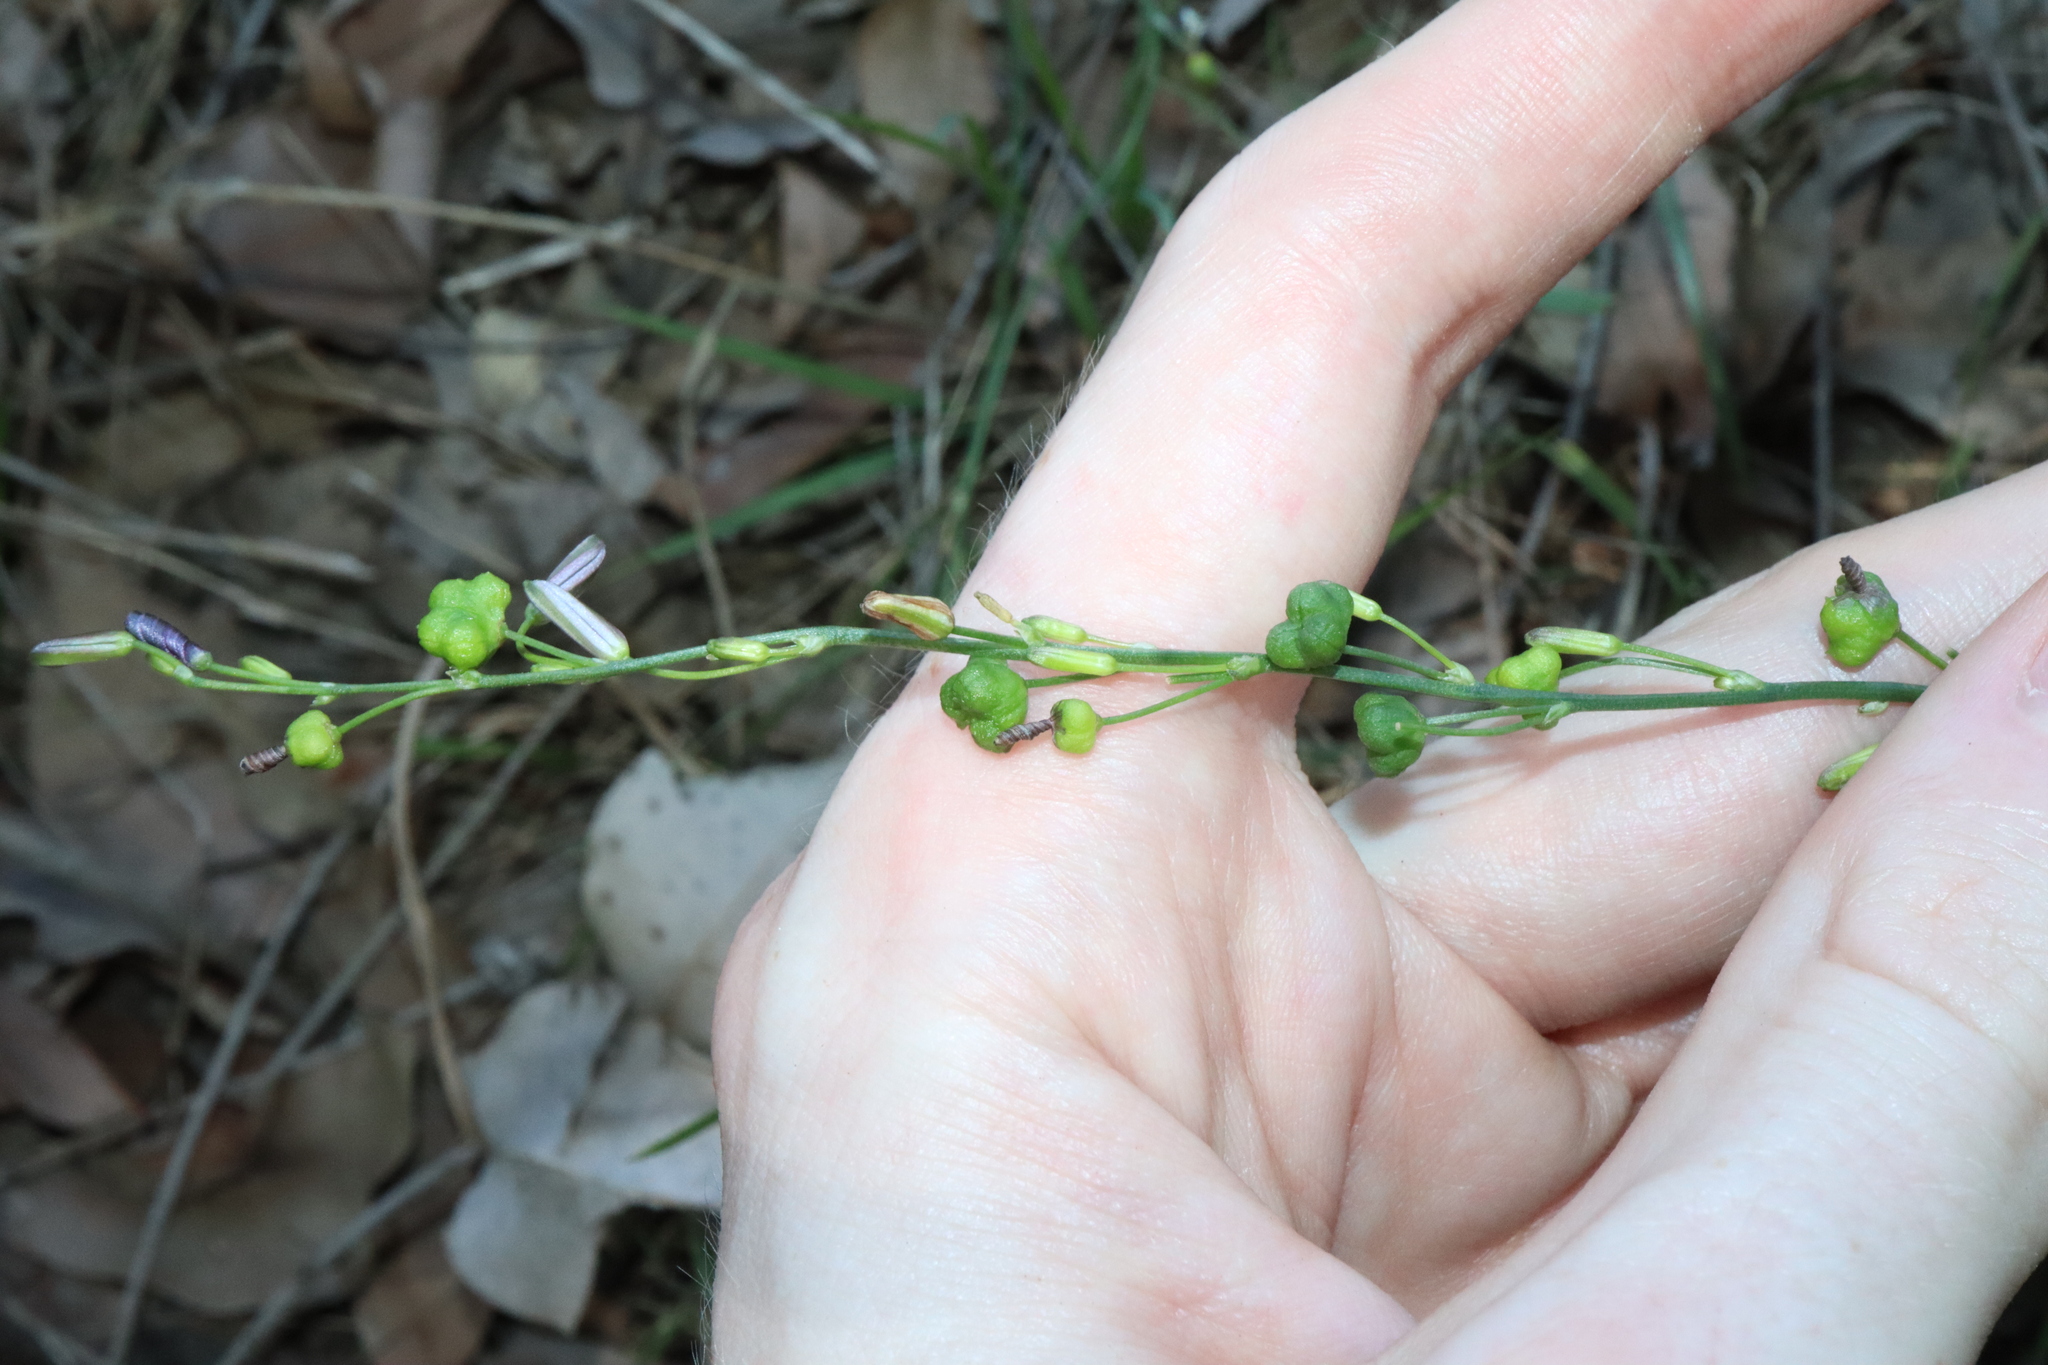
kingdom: Plantae
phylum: Tracheophyta
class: Liliopsida
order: Asparagales
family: Asphodelaceae
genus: Caesia
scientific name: Caesia parviflora
